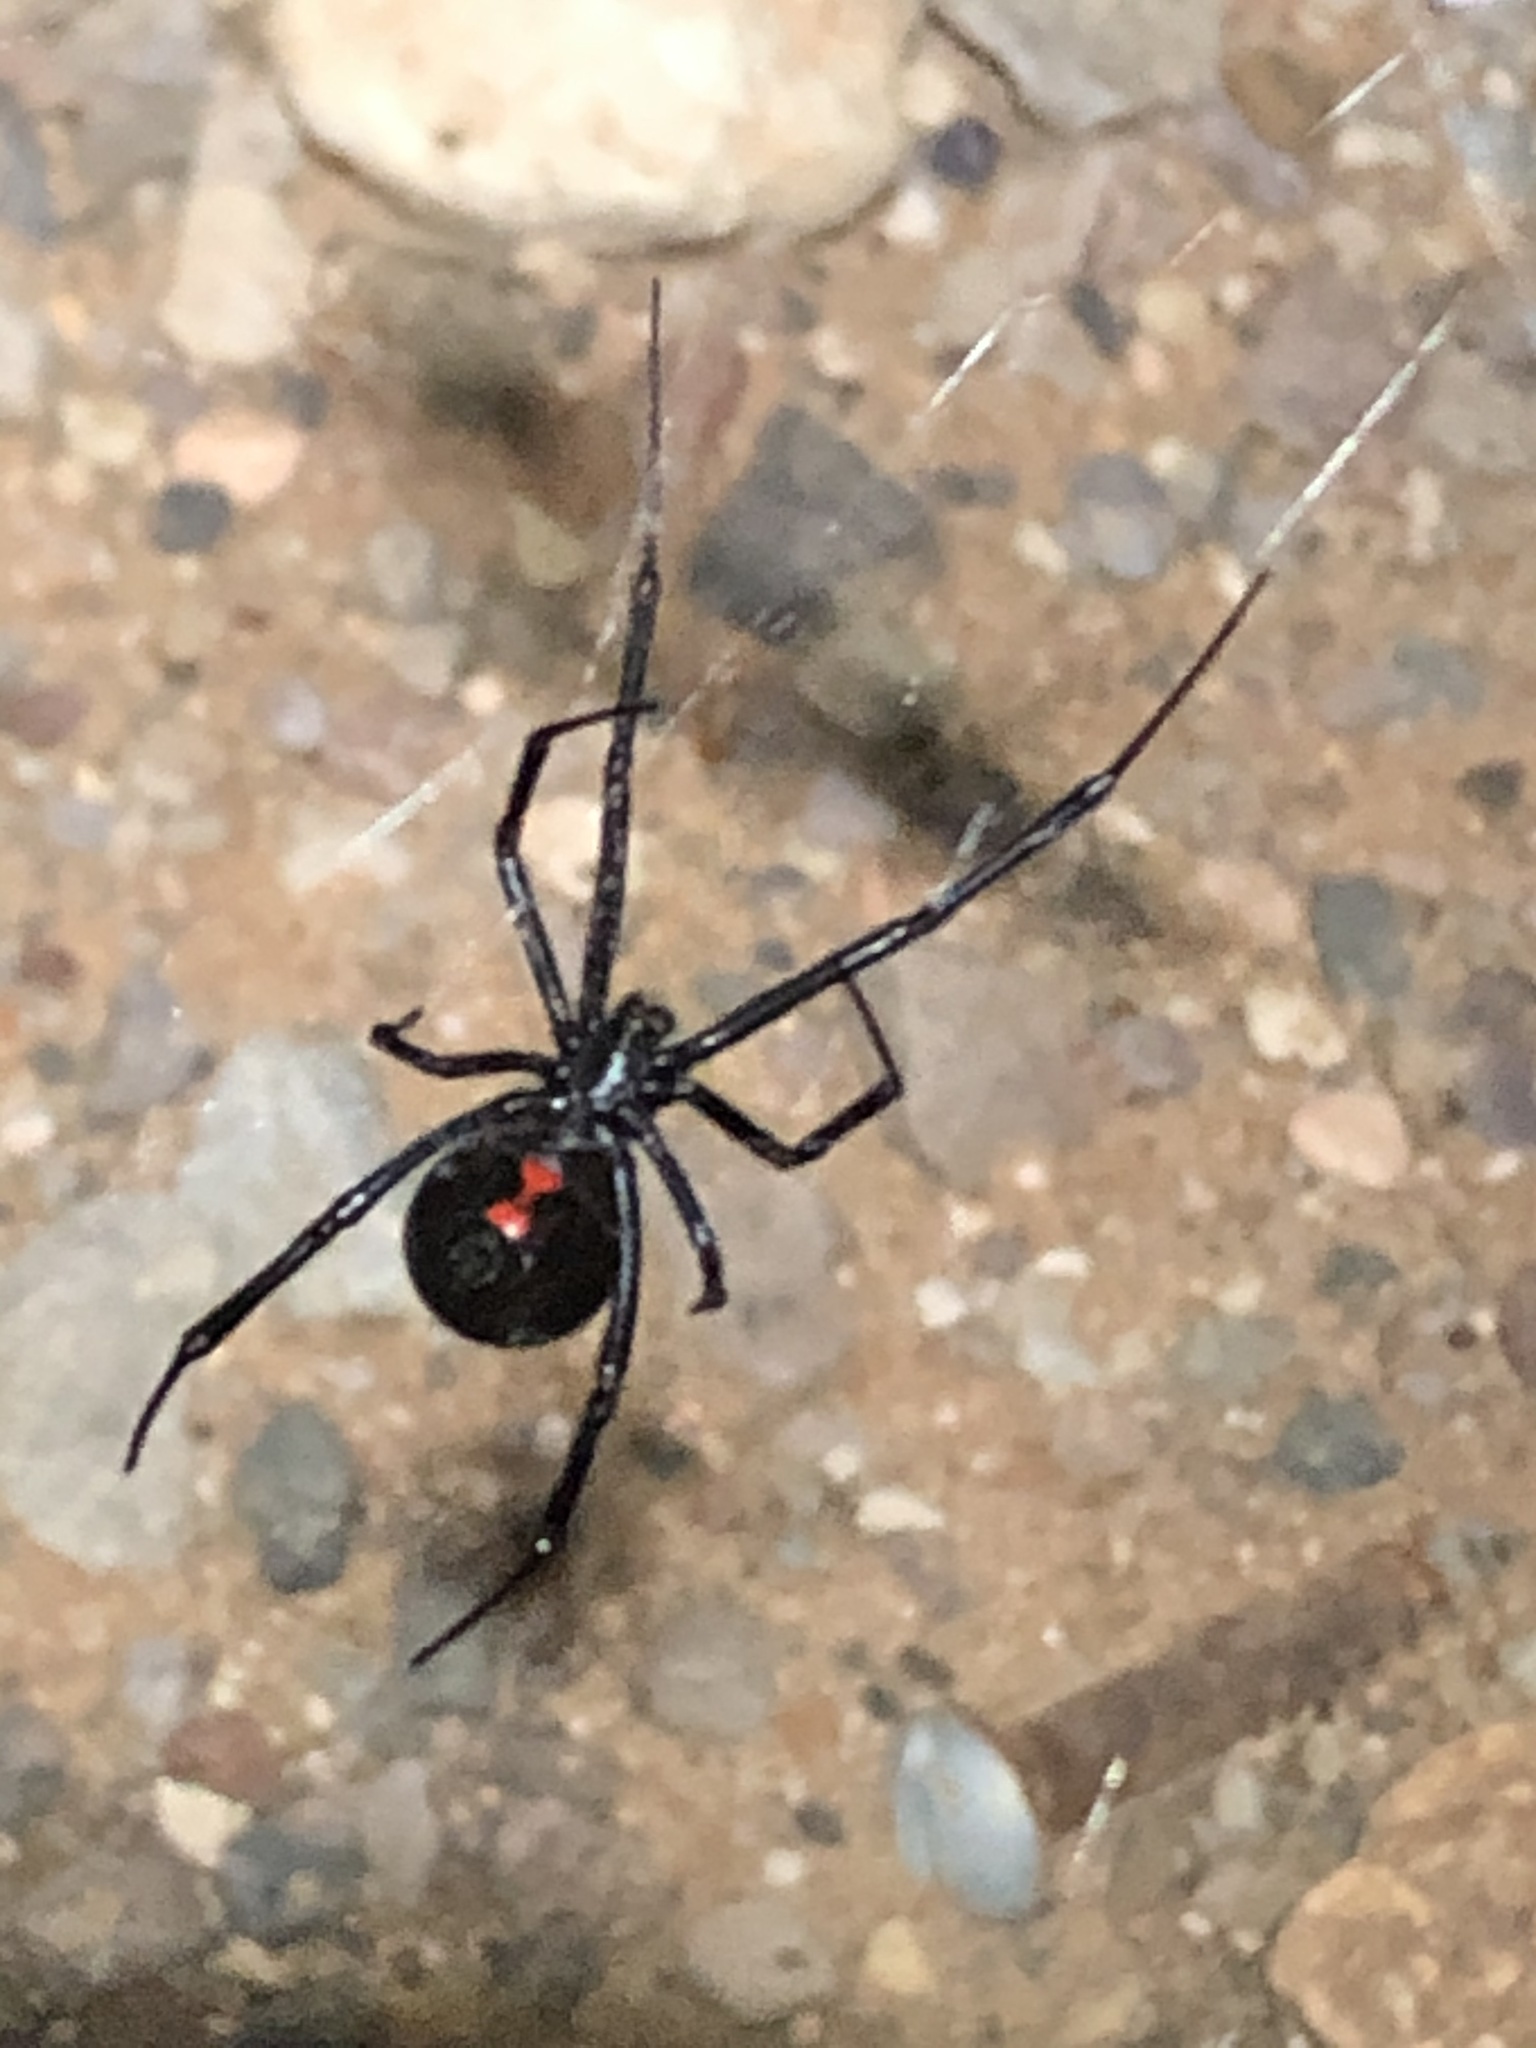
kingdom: Animalia
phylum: Arthropoda
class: Arachnida
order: Araneae
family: Theridiidae
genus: Latrodectus
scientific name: Latrodectus hesperus
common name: Western black widow
